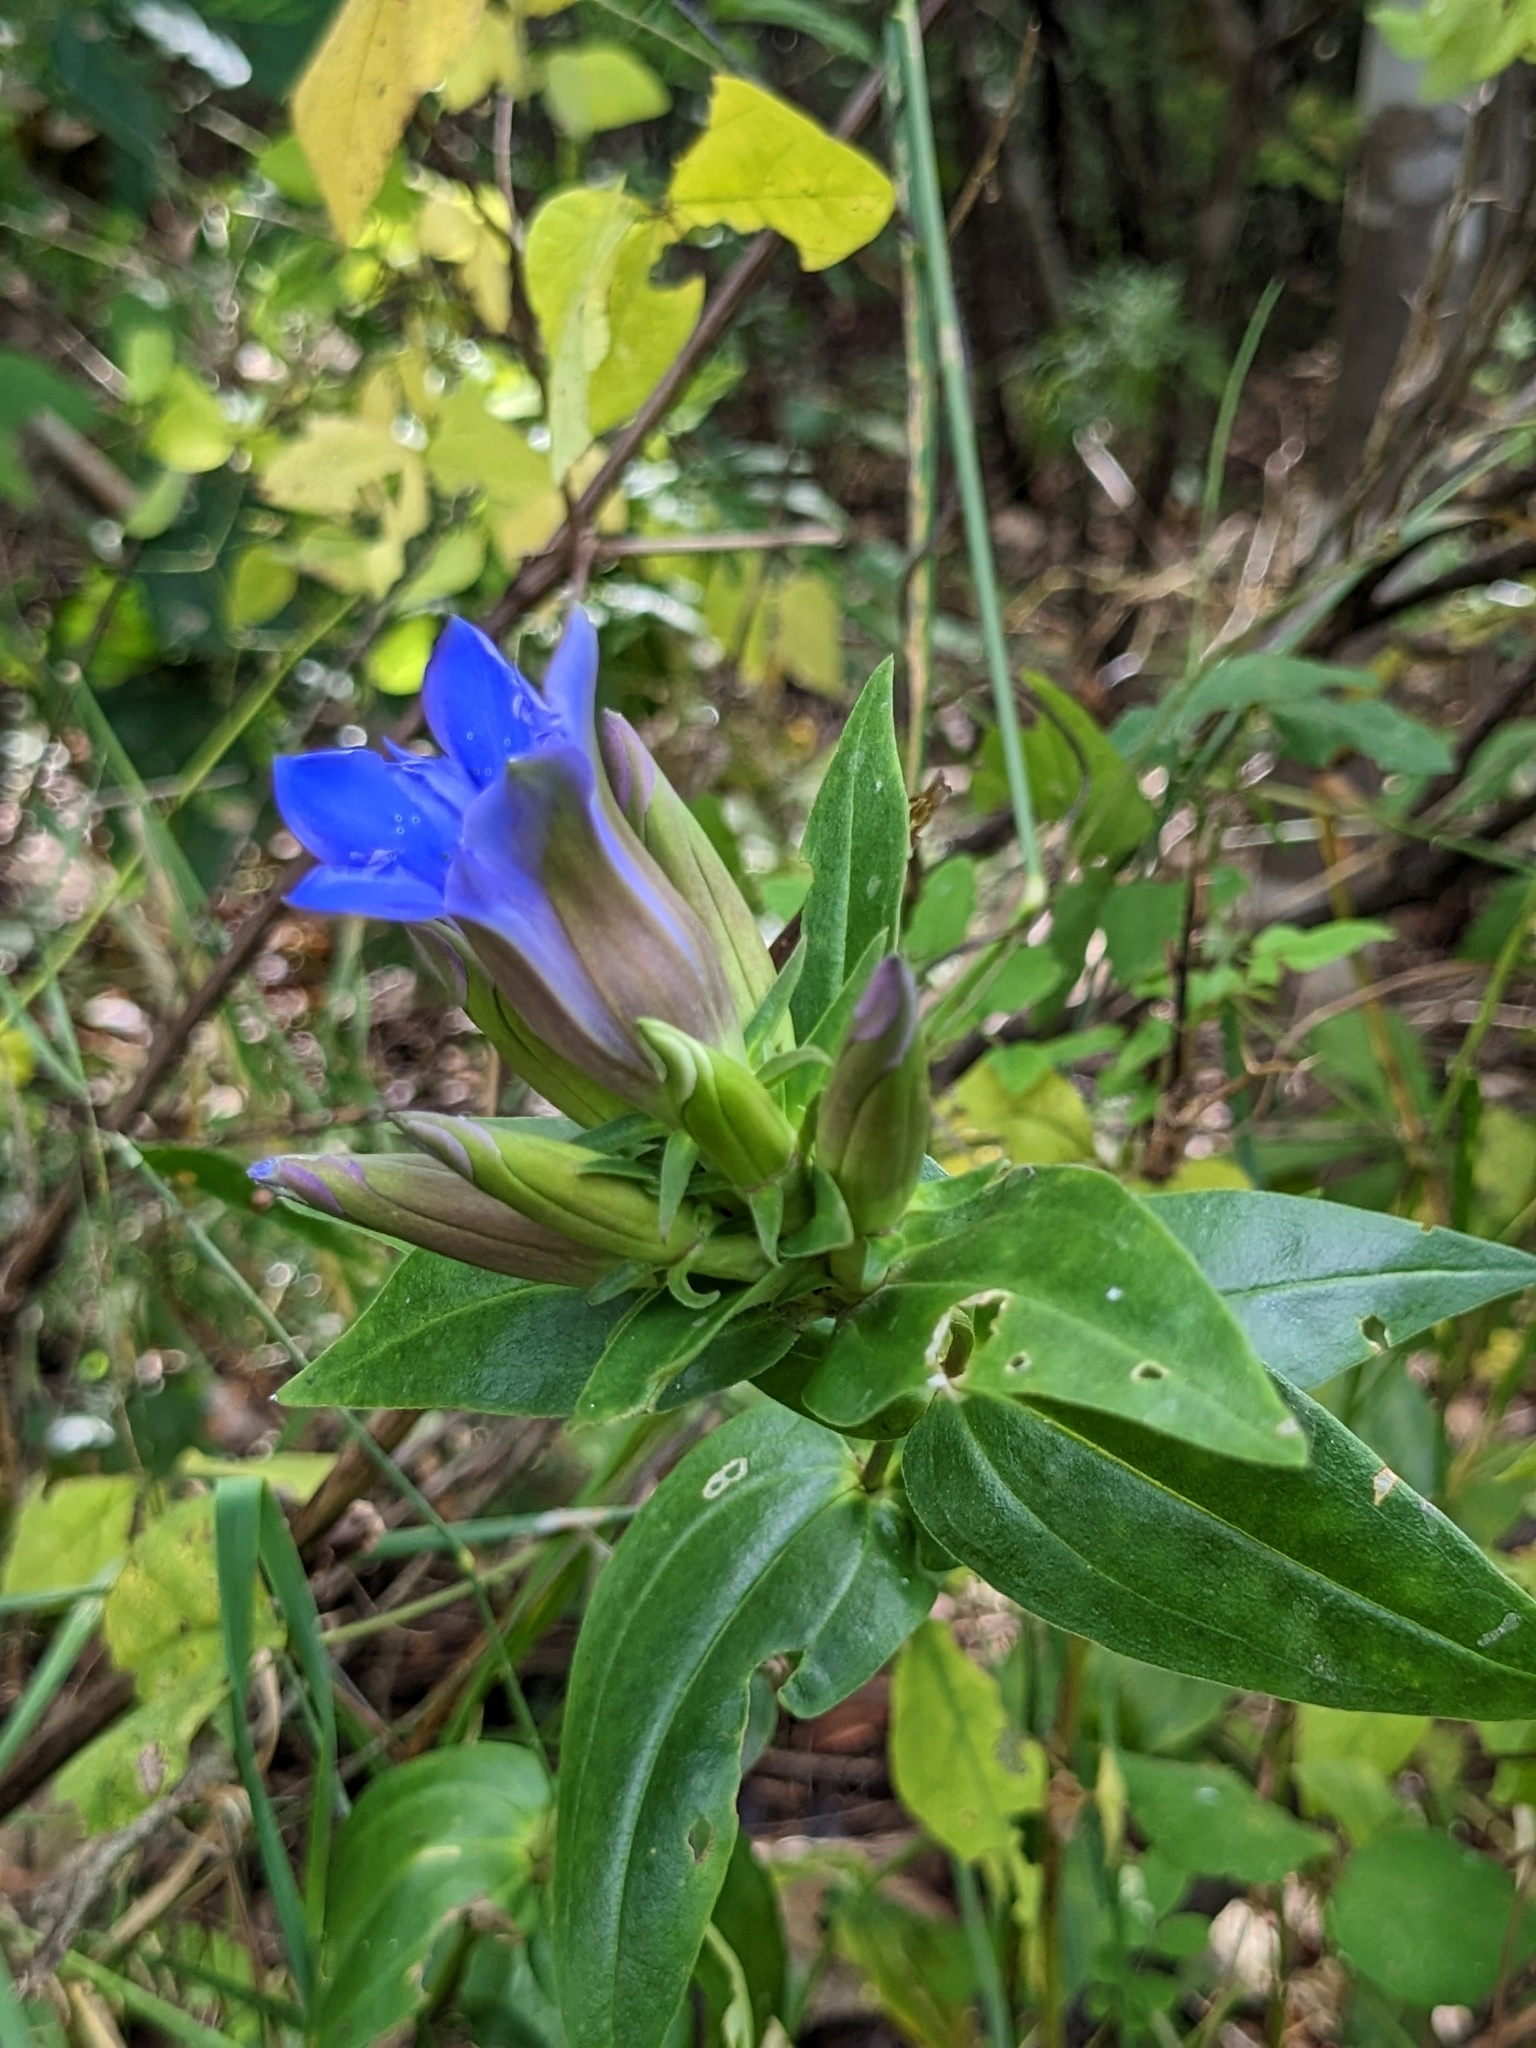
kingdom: Plantae
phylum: Tracheophyta
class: Magnoliopsida
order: Gentianales
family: Gentianaceae
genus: Gentiana
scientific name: Gentiana scabra
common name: Scabrous gentian
